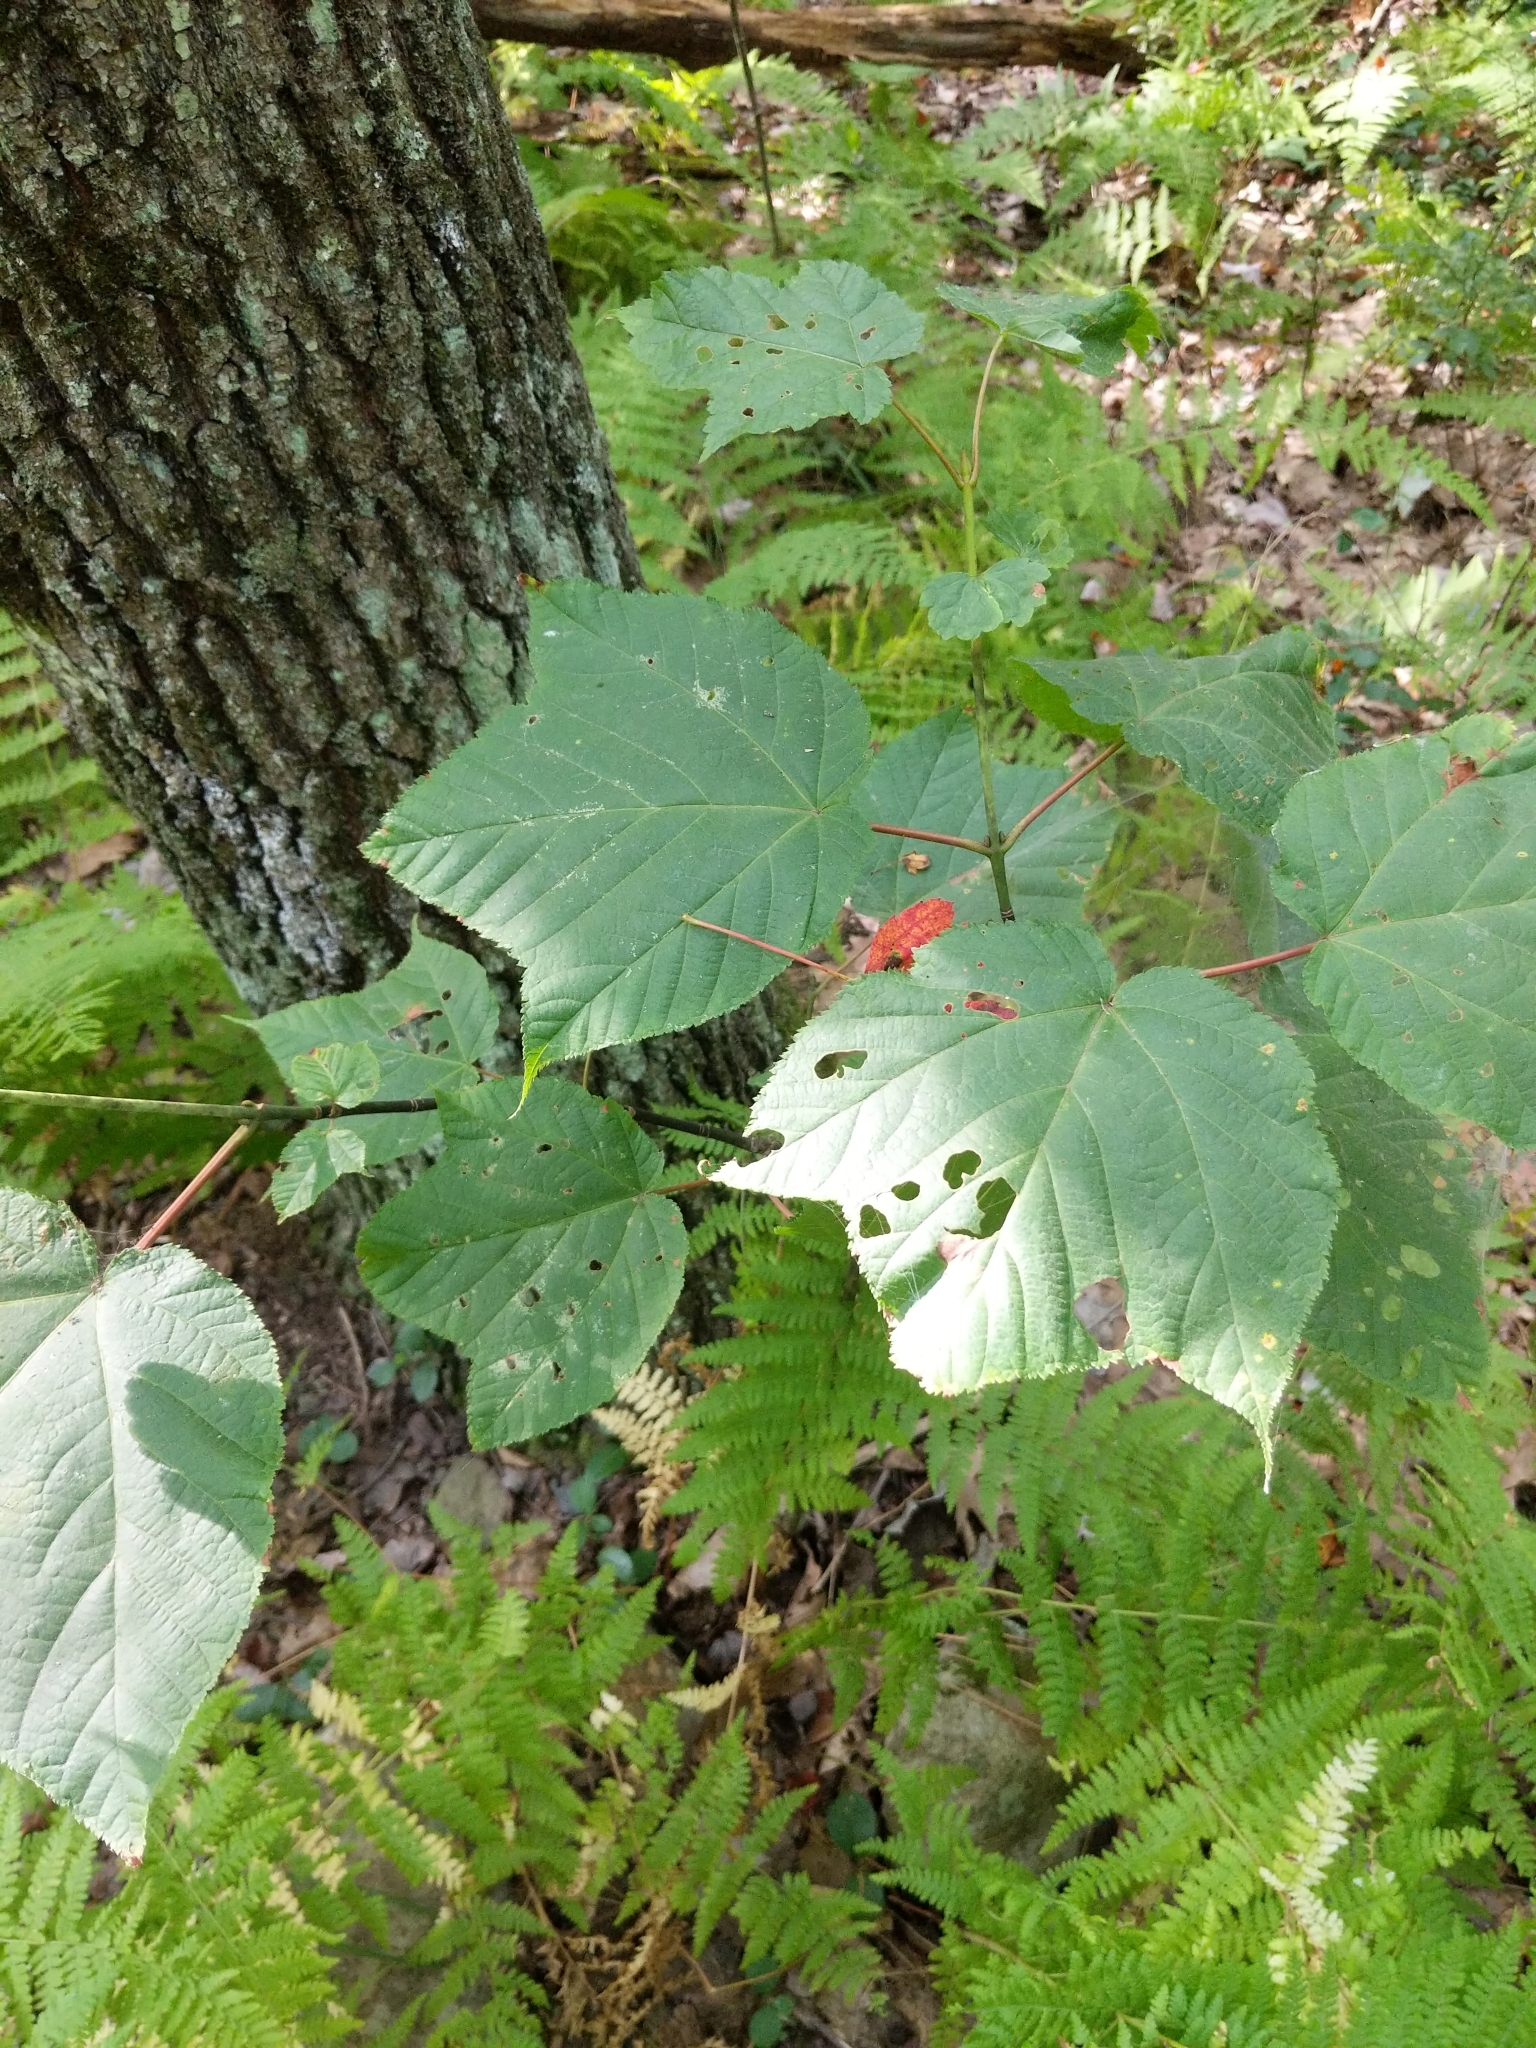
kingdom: Plantae
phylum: Tracheophyta
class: Magnoliopsida
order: Sapindales
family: Sapindaceae
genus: Acer
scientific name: Acer pensylvanicum
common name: Moosewood
